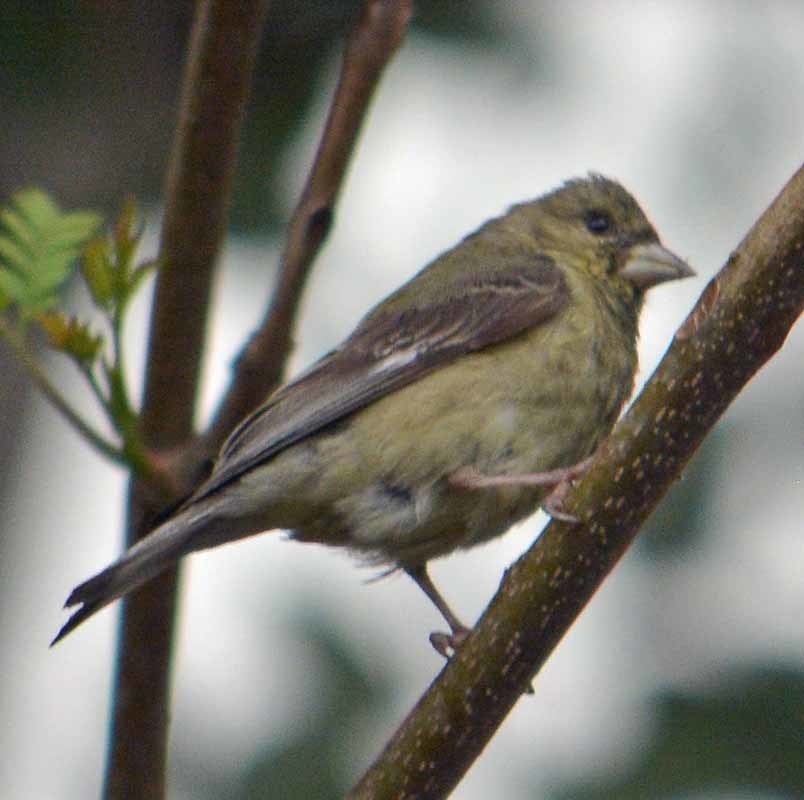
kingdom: Animalia
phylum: Chordata
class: Aves
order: Passeriformes
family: Fringillidae
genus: Spinus
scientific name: Spinus psaltria
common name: Lesser goldfinch
